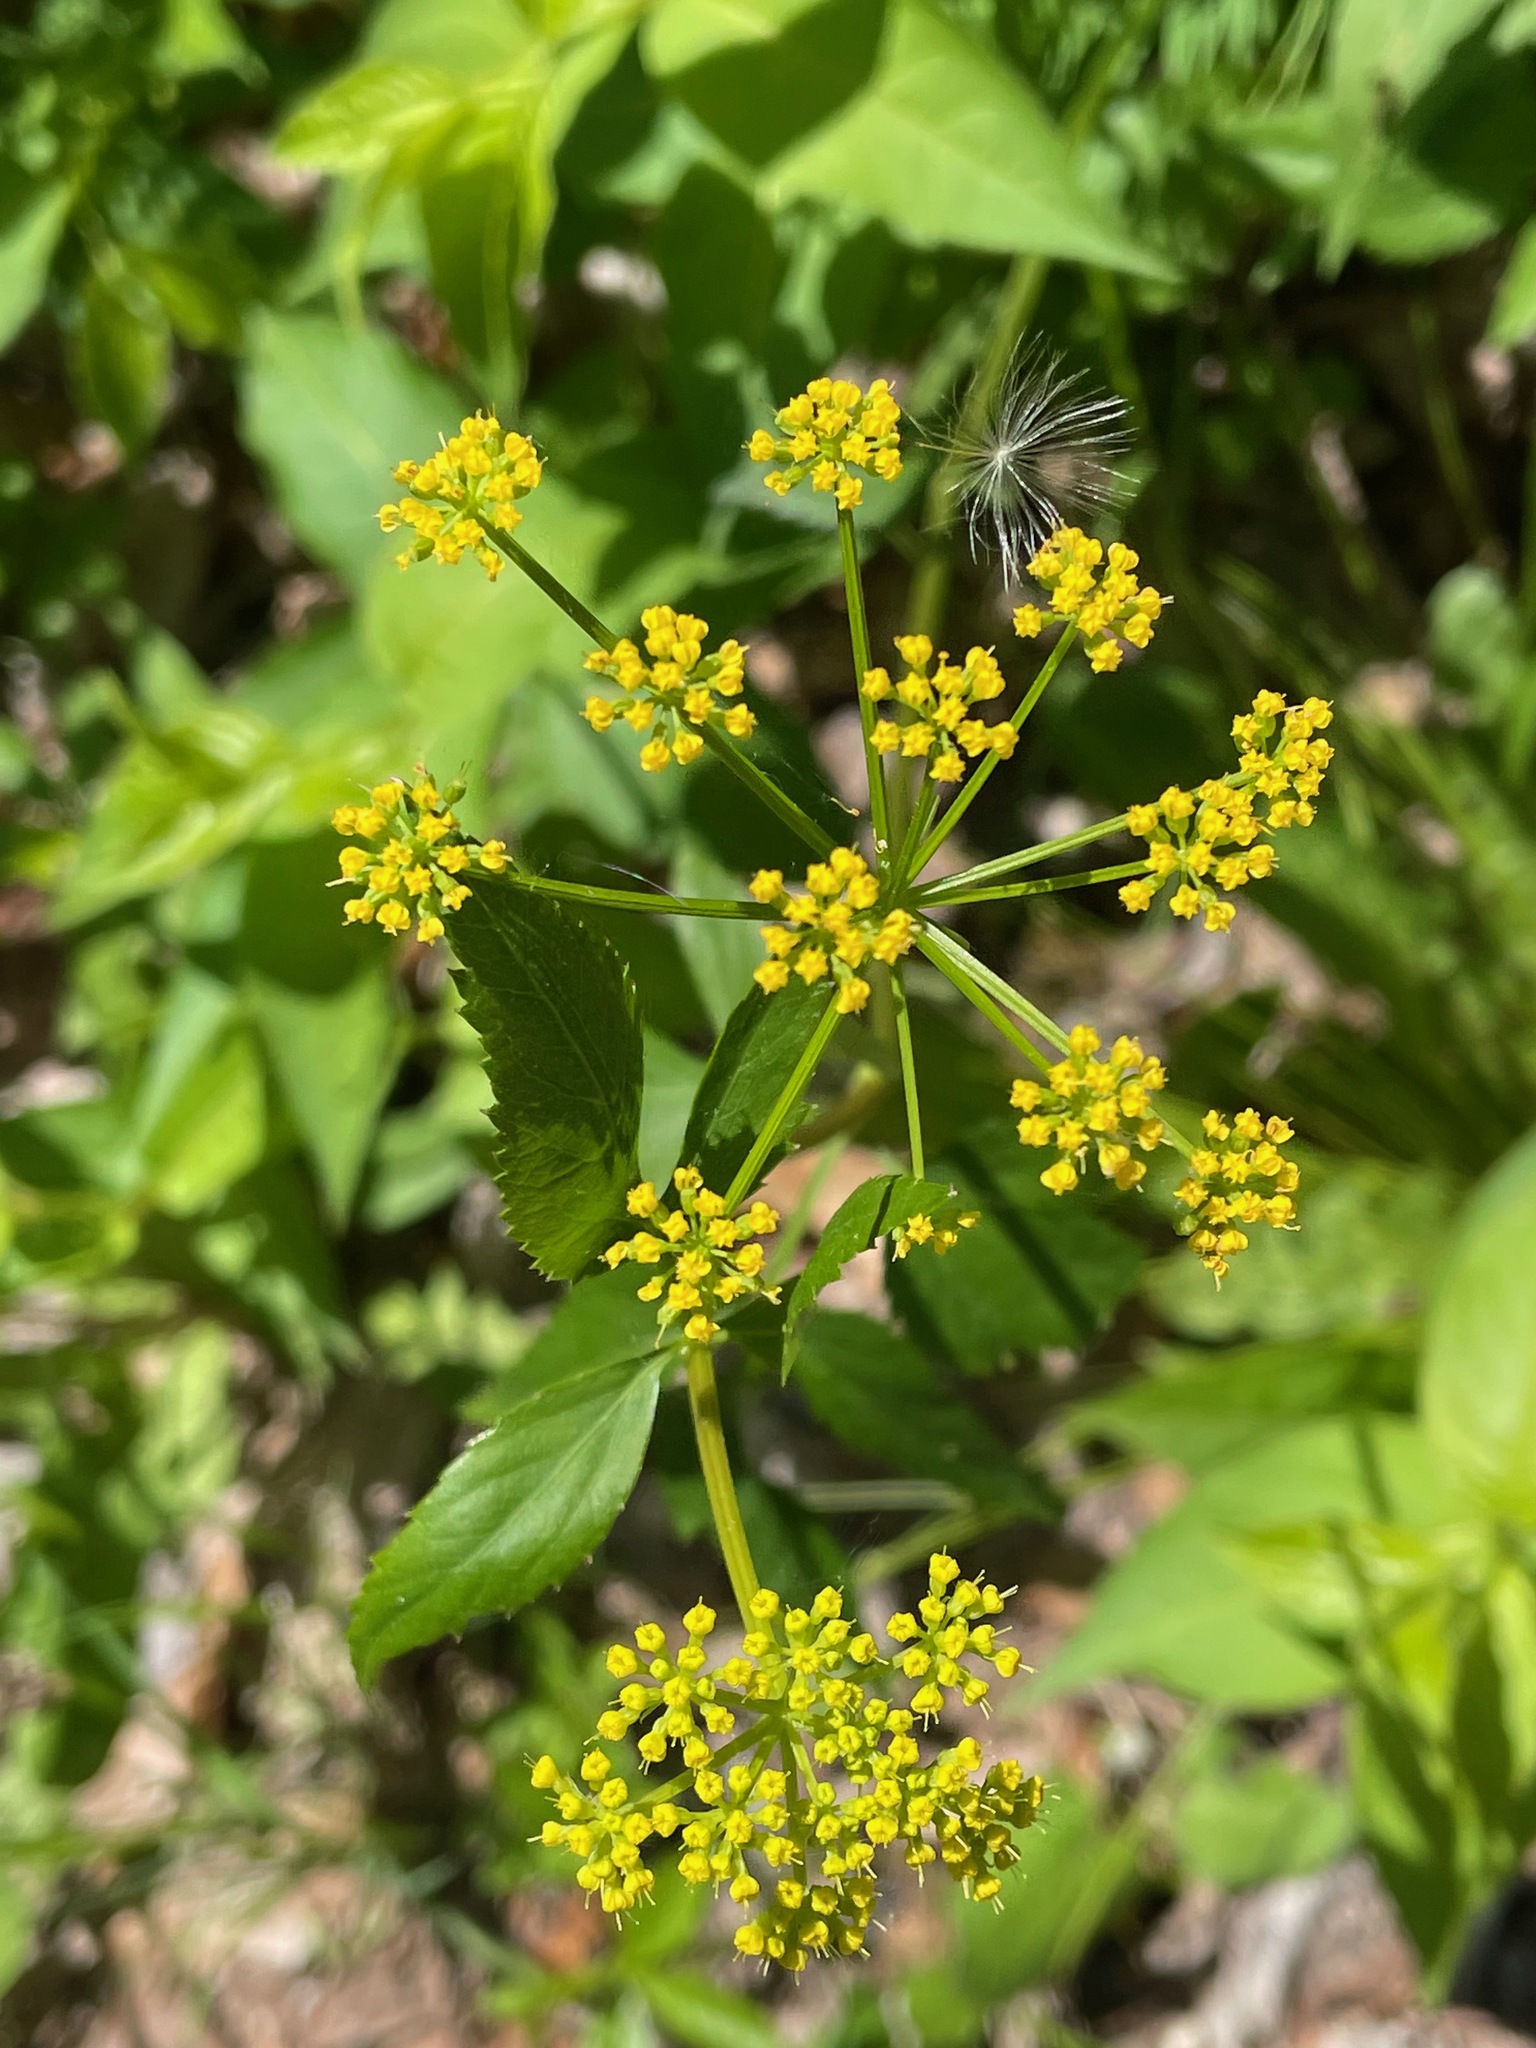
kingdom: Plantae
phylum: Tracheophyta
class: Magnoliopsida
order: Apiales
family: Apiaceae
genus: Zizia
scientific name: Zizia aurea
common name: Golden alexanders
